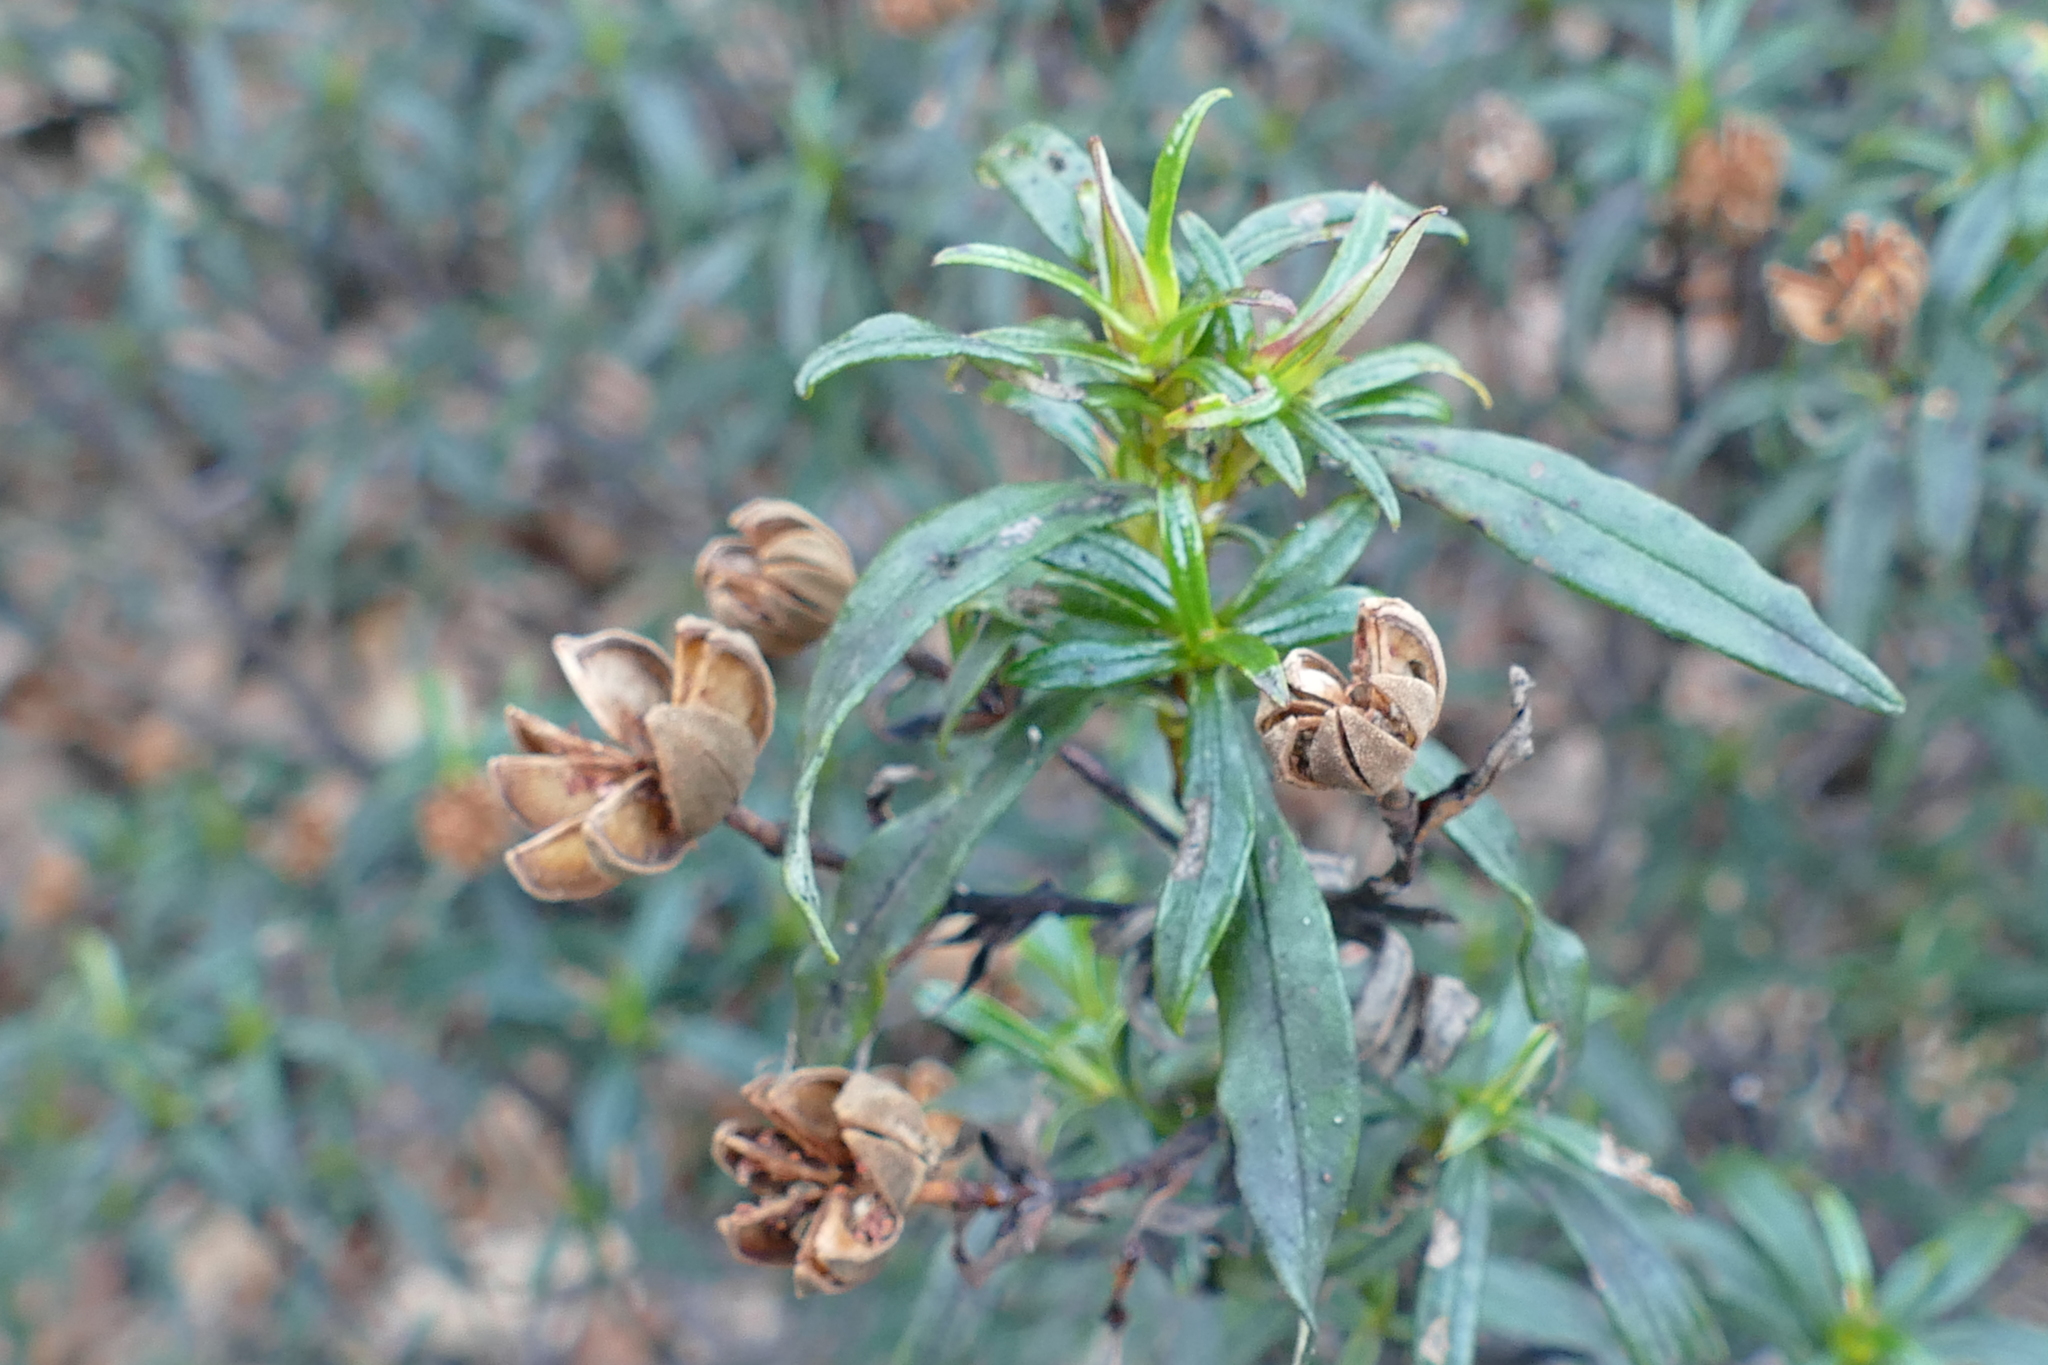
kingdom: Plantae
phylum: Tracheophyta
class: Magnoliopsida
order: Malvales
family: Cistaceae
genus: Cistus
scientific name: Cistus ladanifer
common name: Common gum cistus
